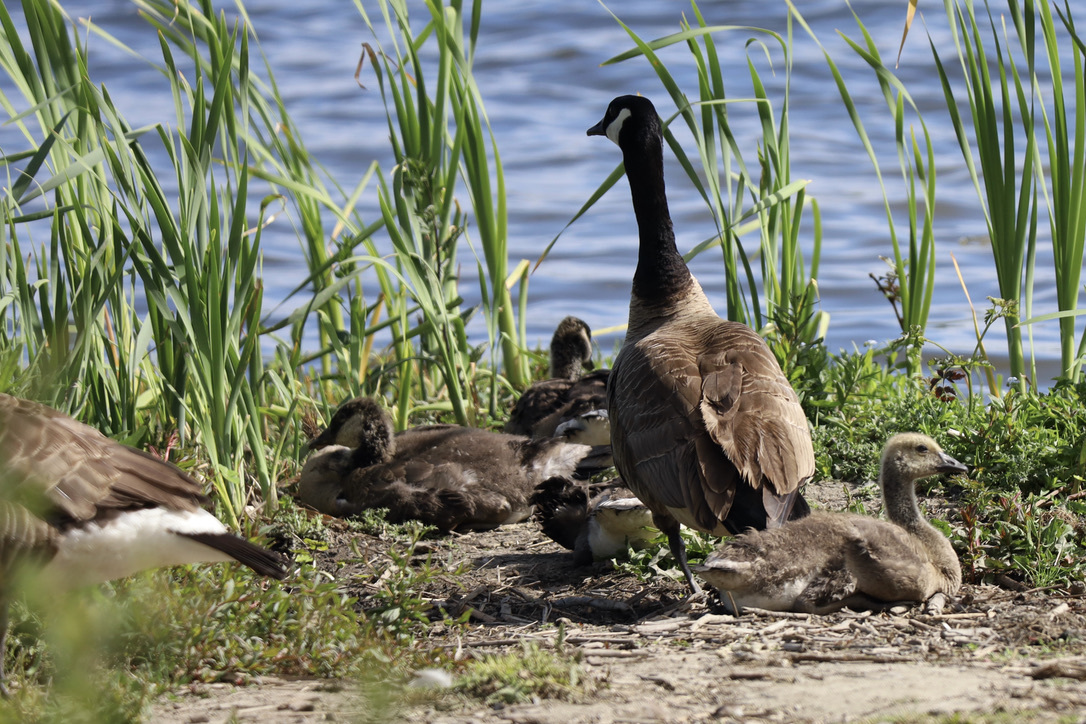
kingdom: Animalia
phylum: Chordata
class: Aves
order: Anseriformes
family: Anatidae
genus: Branta
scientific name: Branta canadensis
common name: Canada goose
